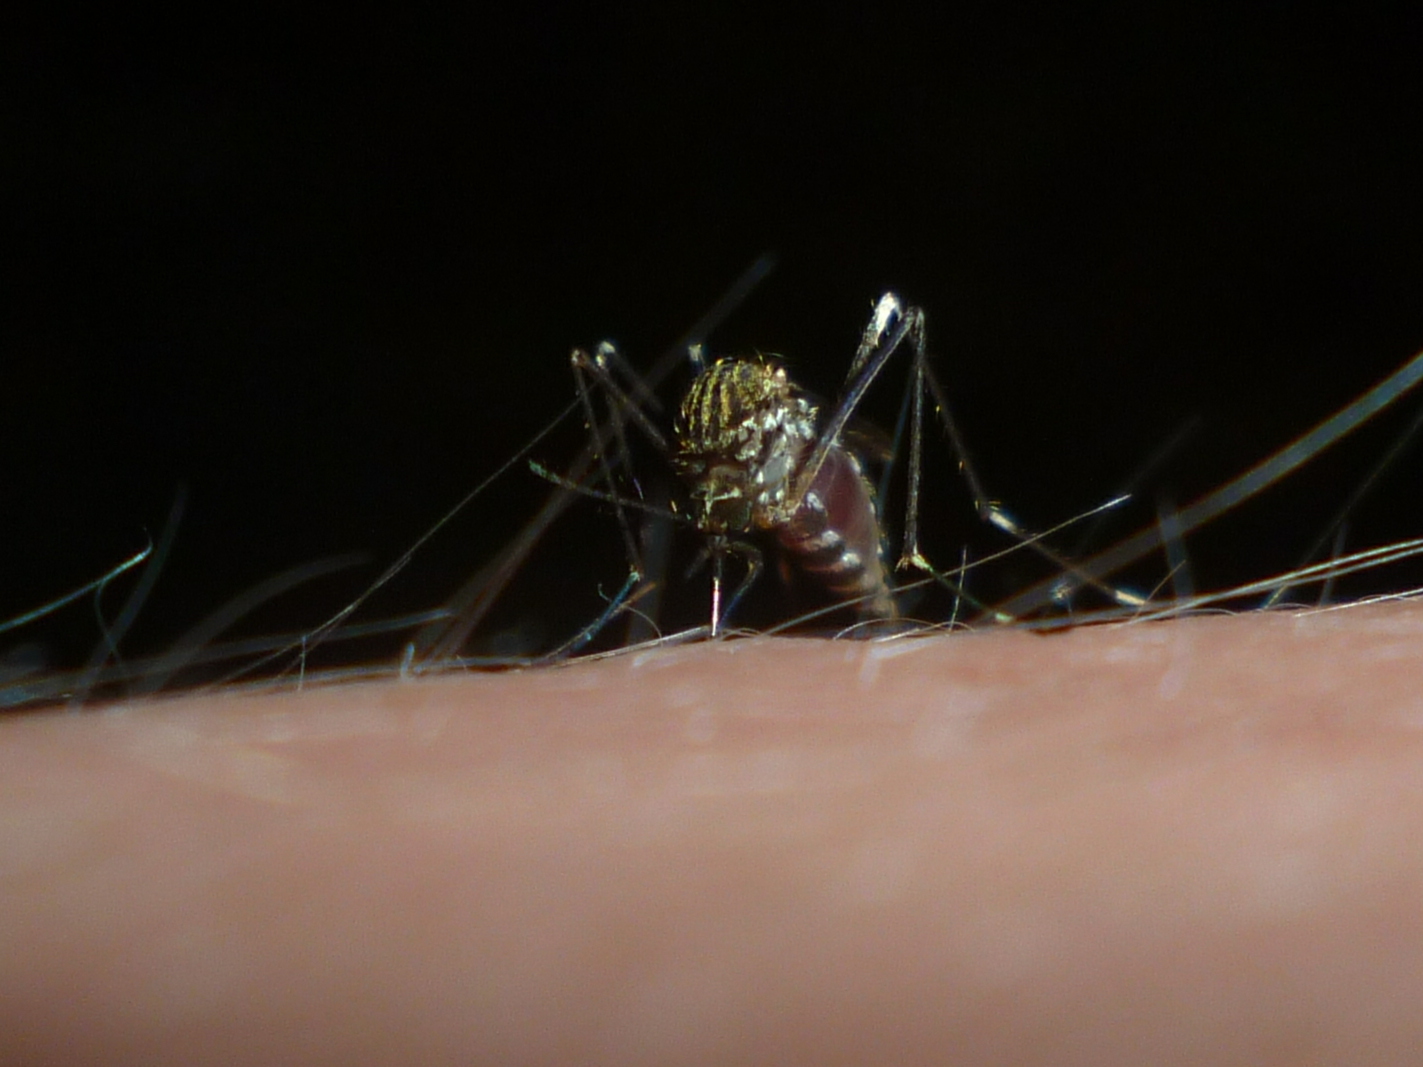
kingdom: Animalia
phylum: Arthropoda
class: Insecta
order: Diptera
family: Culicidae
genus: Aedes
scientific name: Aedes japonicus
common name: Asian bush mosquito
